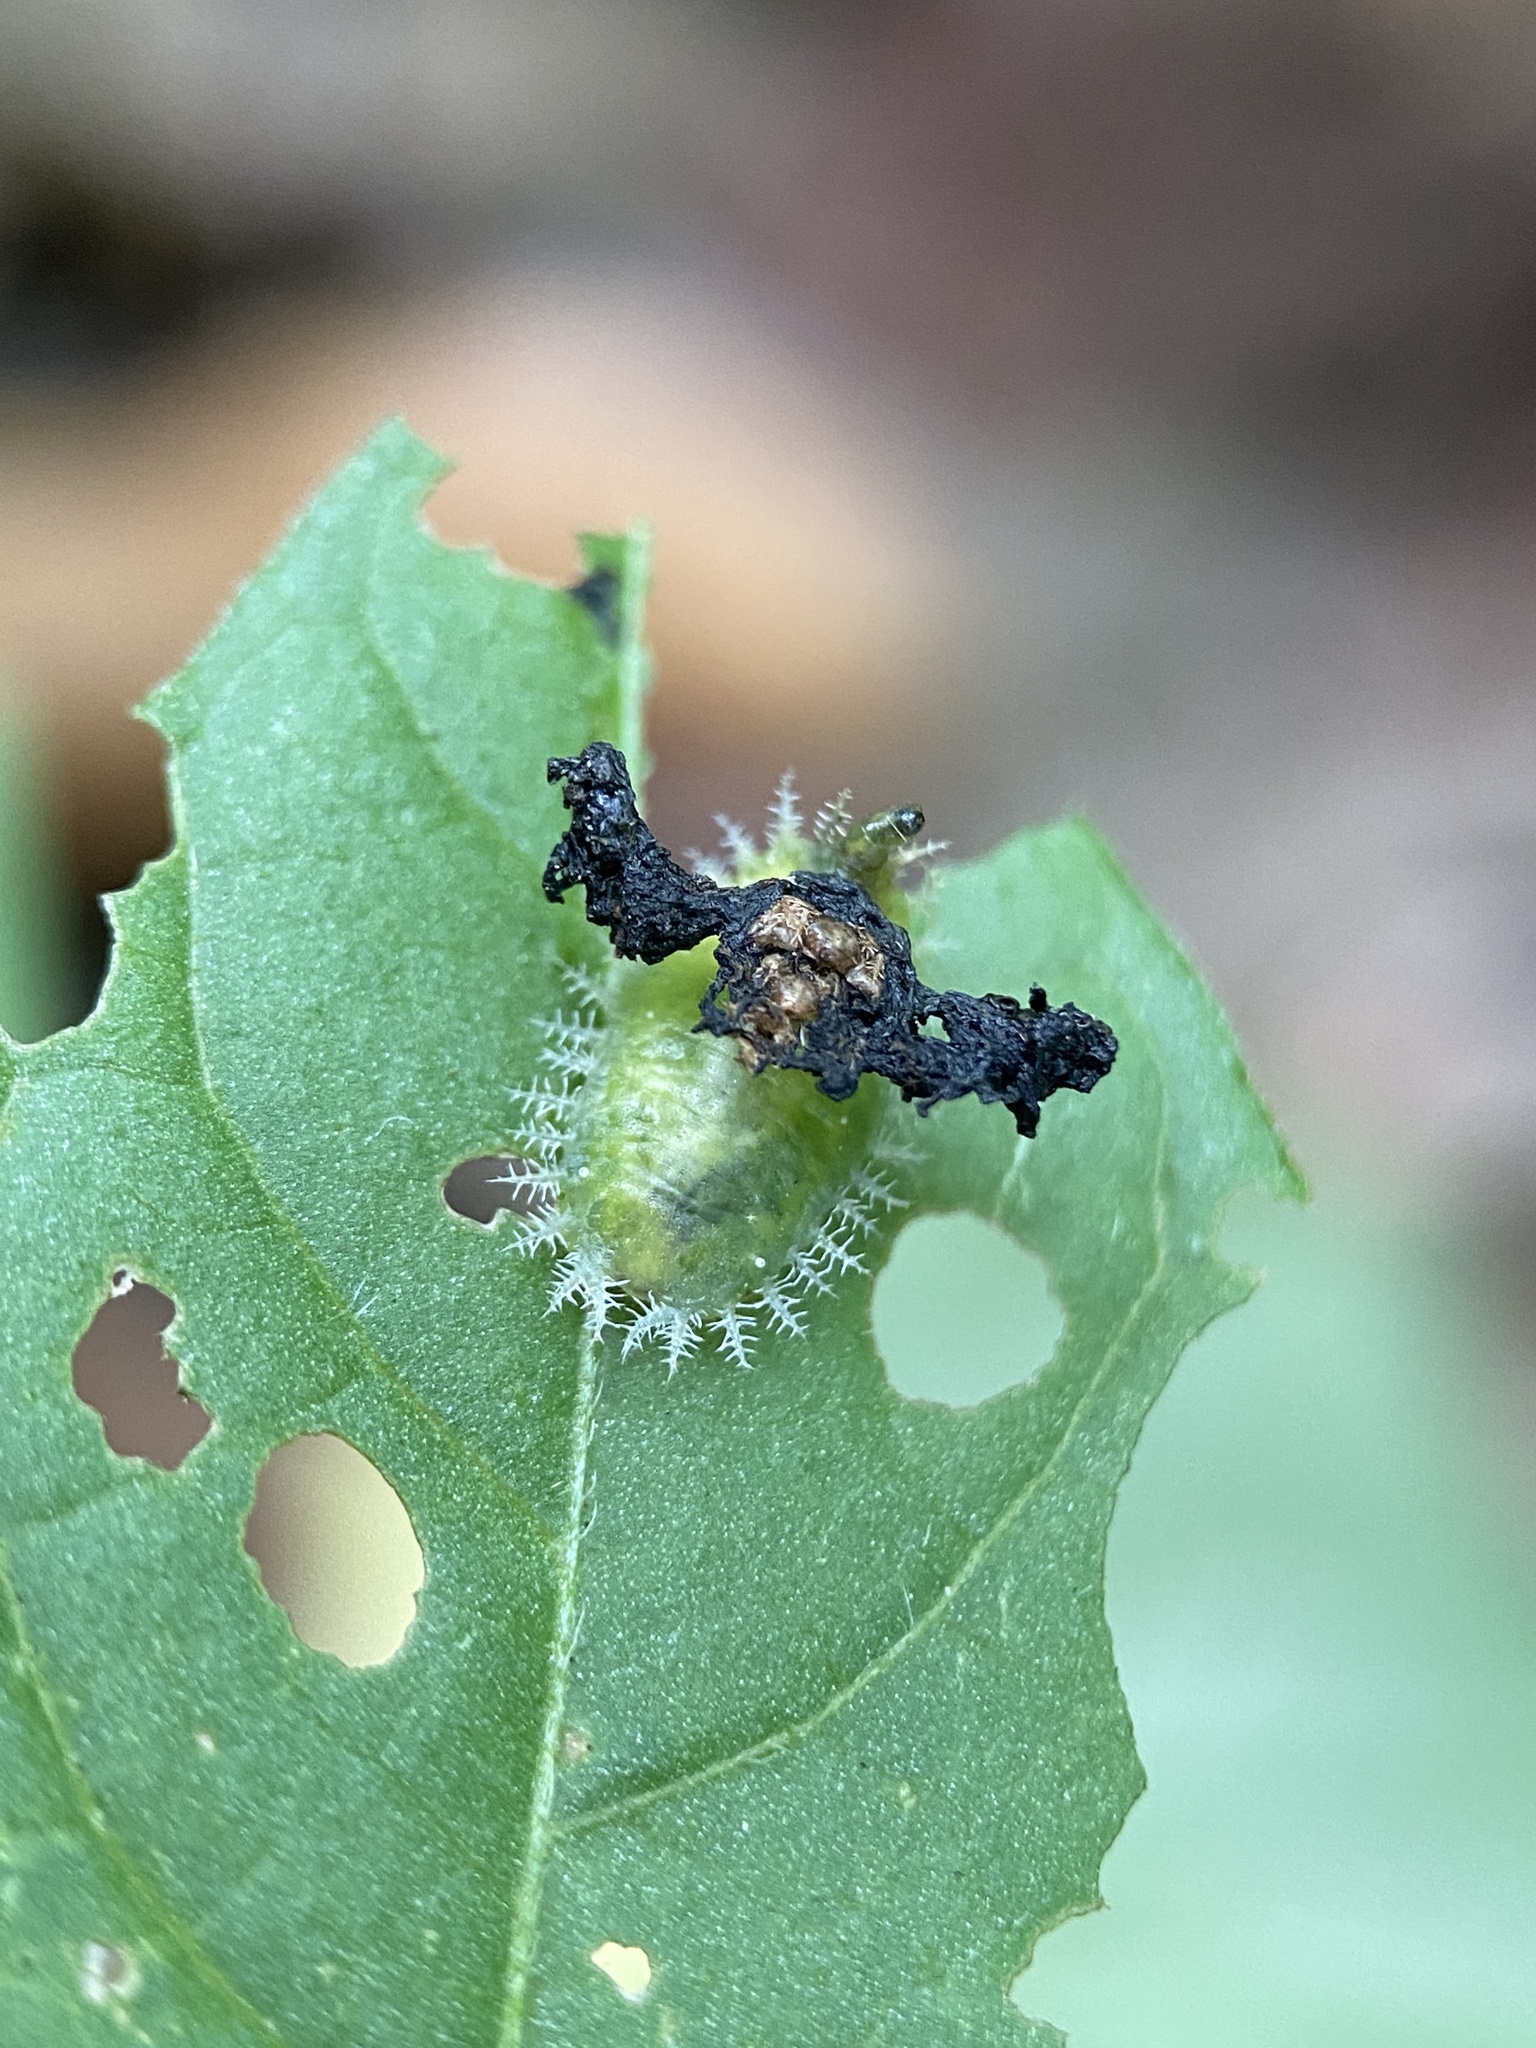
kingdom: Animalia
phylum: Arthropoda
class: Insecta
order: Coleoptera
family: Chrysomelidae
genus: Helocassis
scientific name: Helocassis clavata
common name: Clavate tortoise beetle
